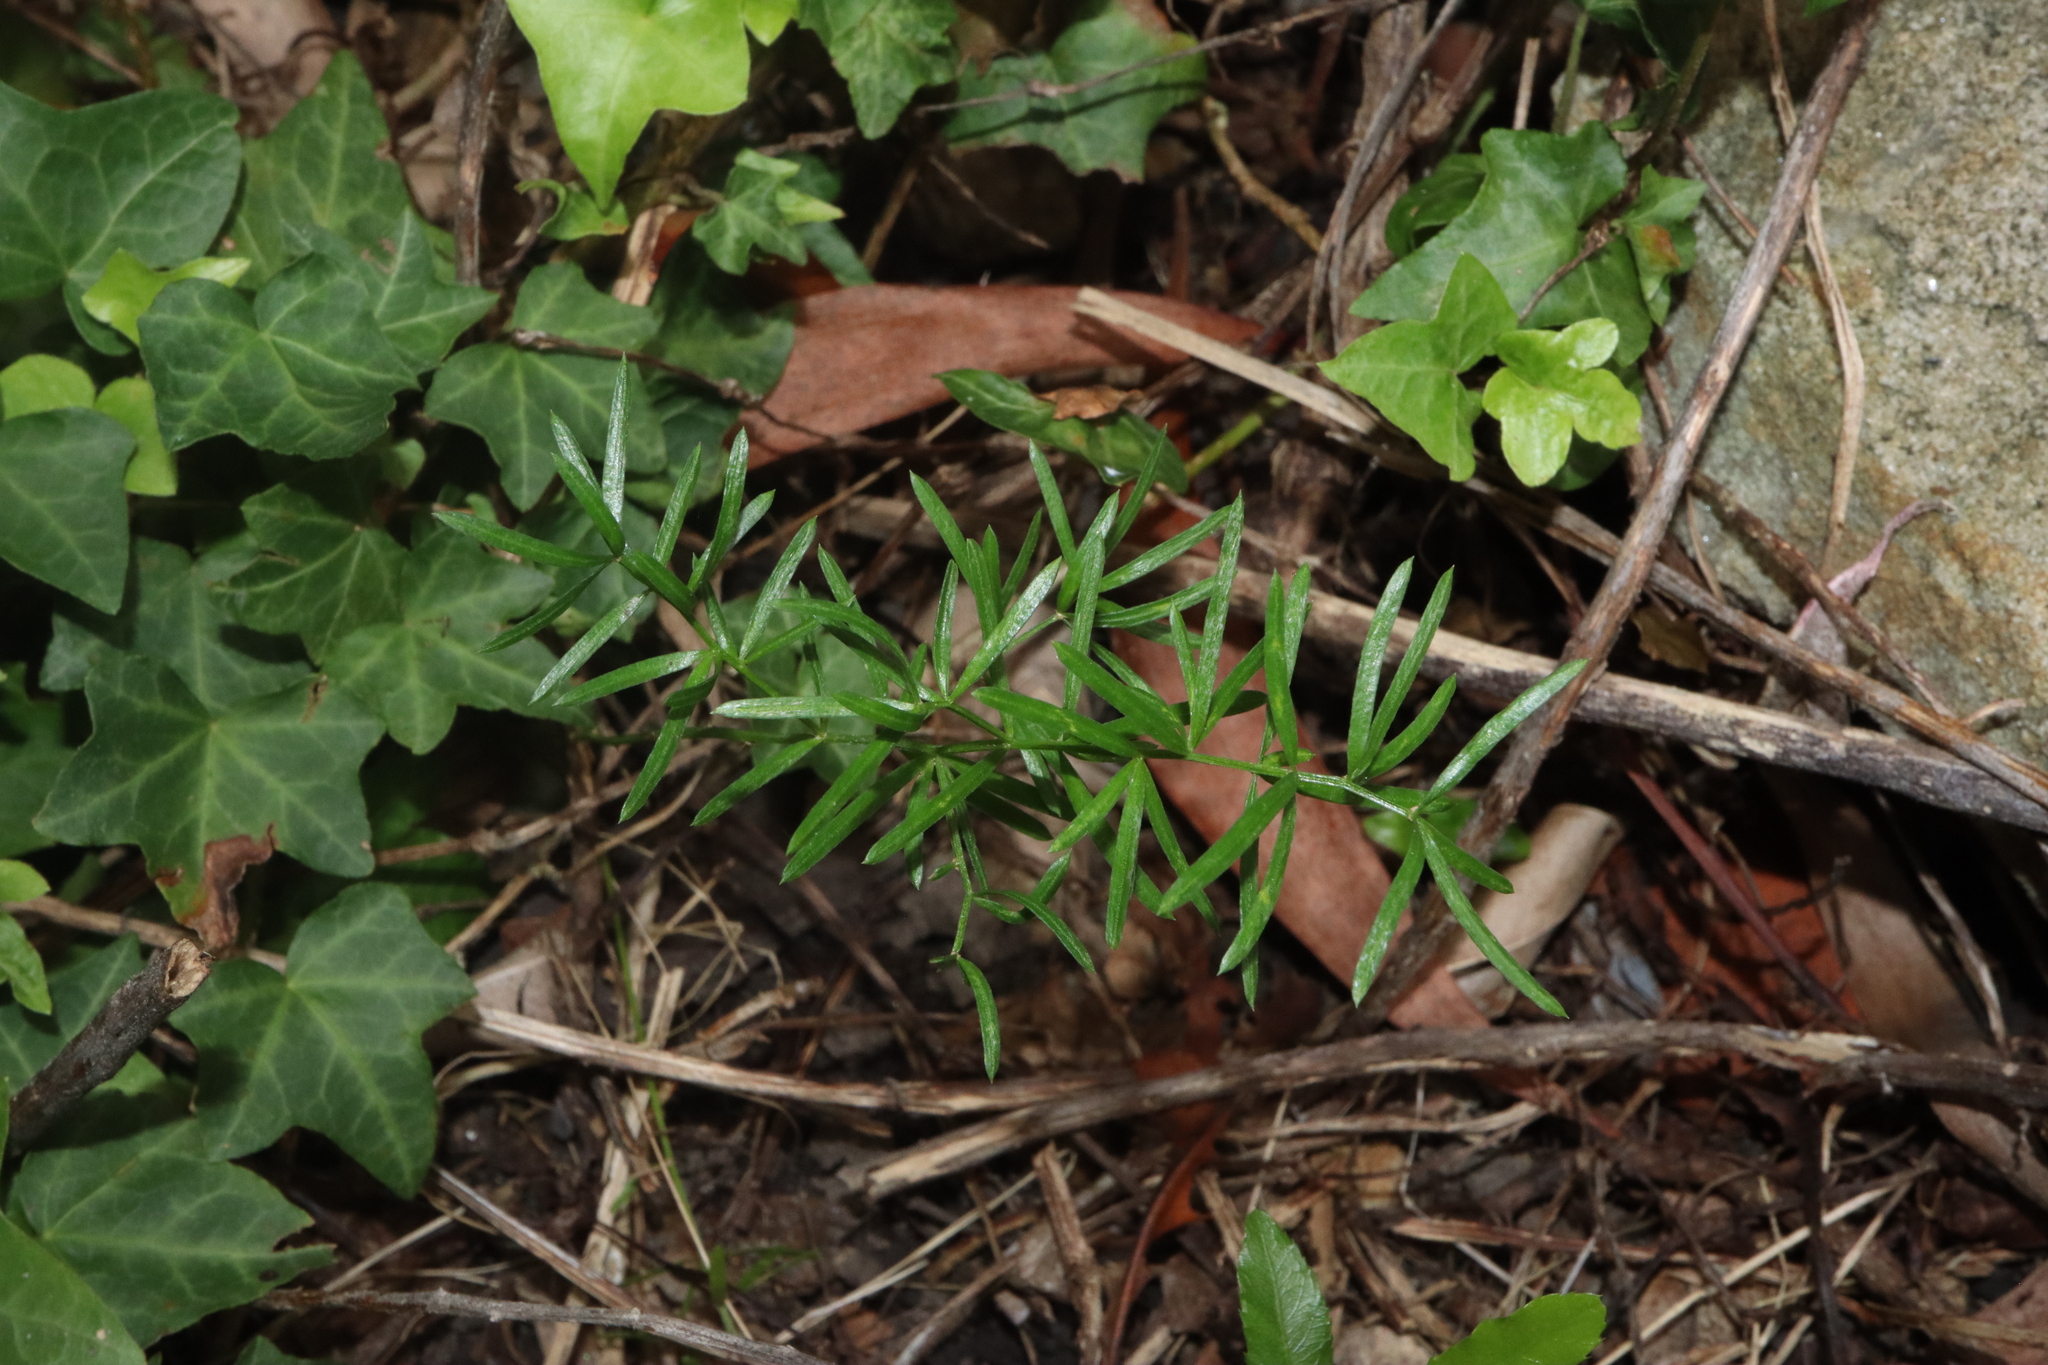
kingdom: Plantae
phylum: Tracheophyta
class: Liliopsida
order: Asparagales
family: Asparagaceae
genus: Asparagus
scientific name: Asparagus aethiopicus
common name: Sprenger's asparagus fern
